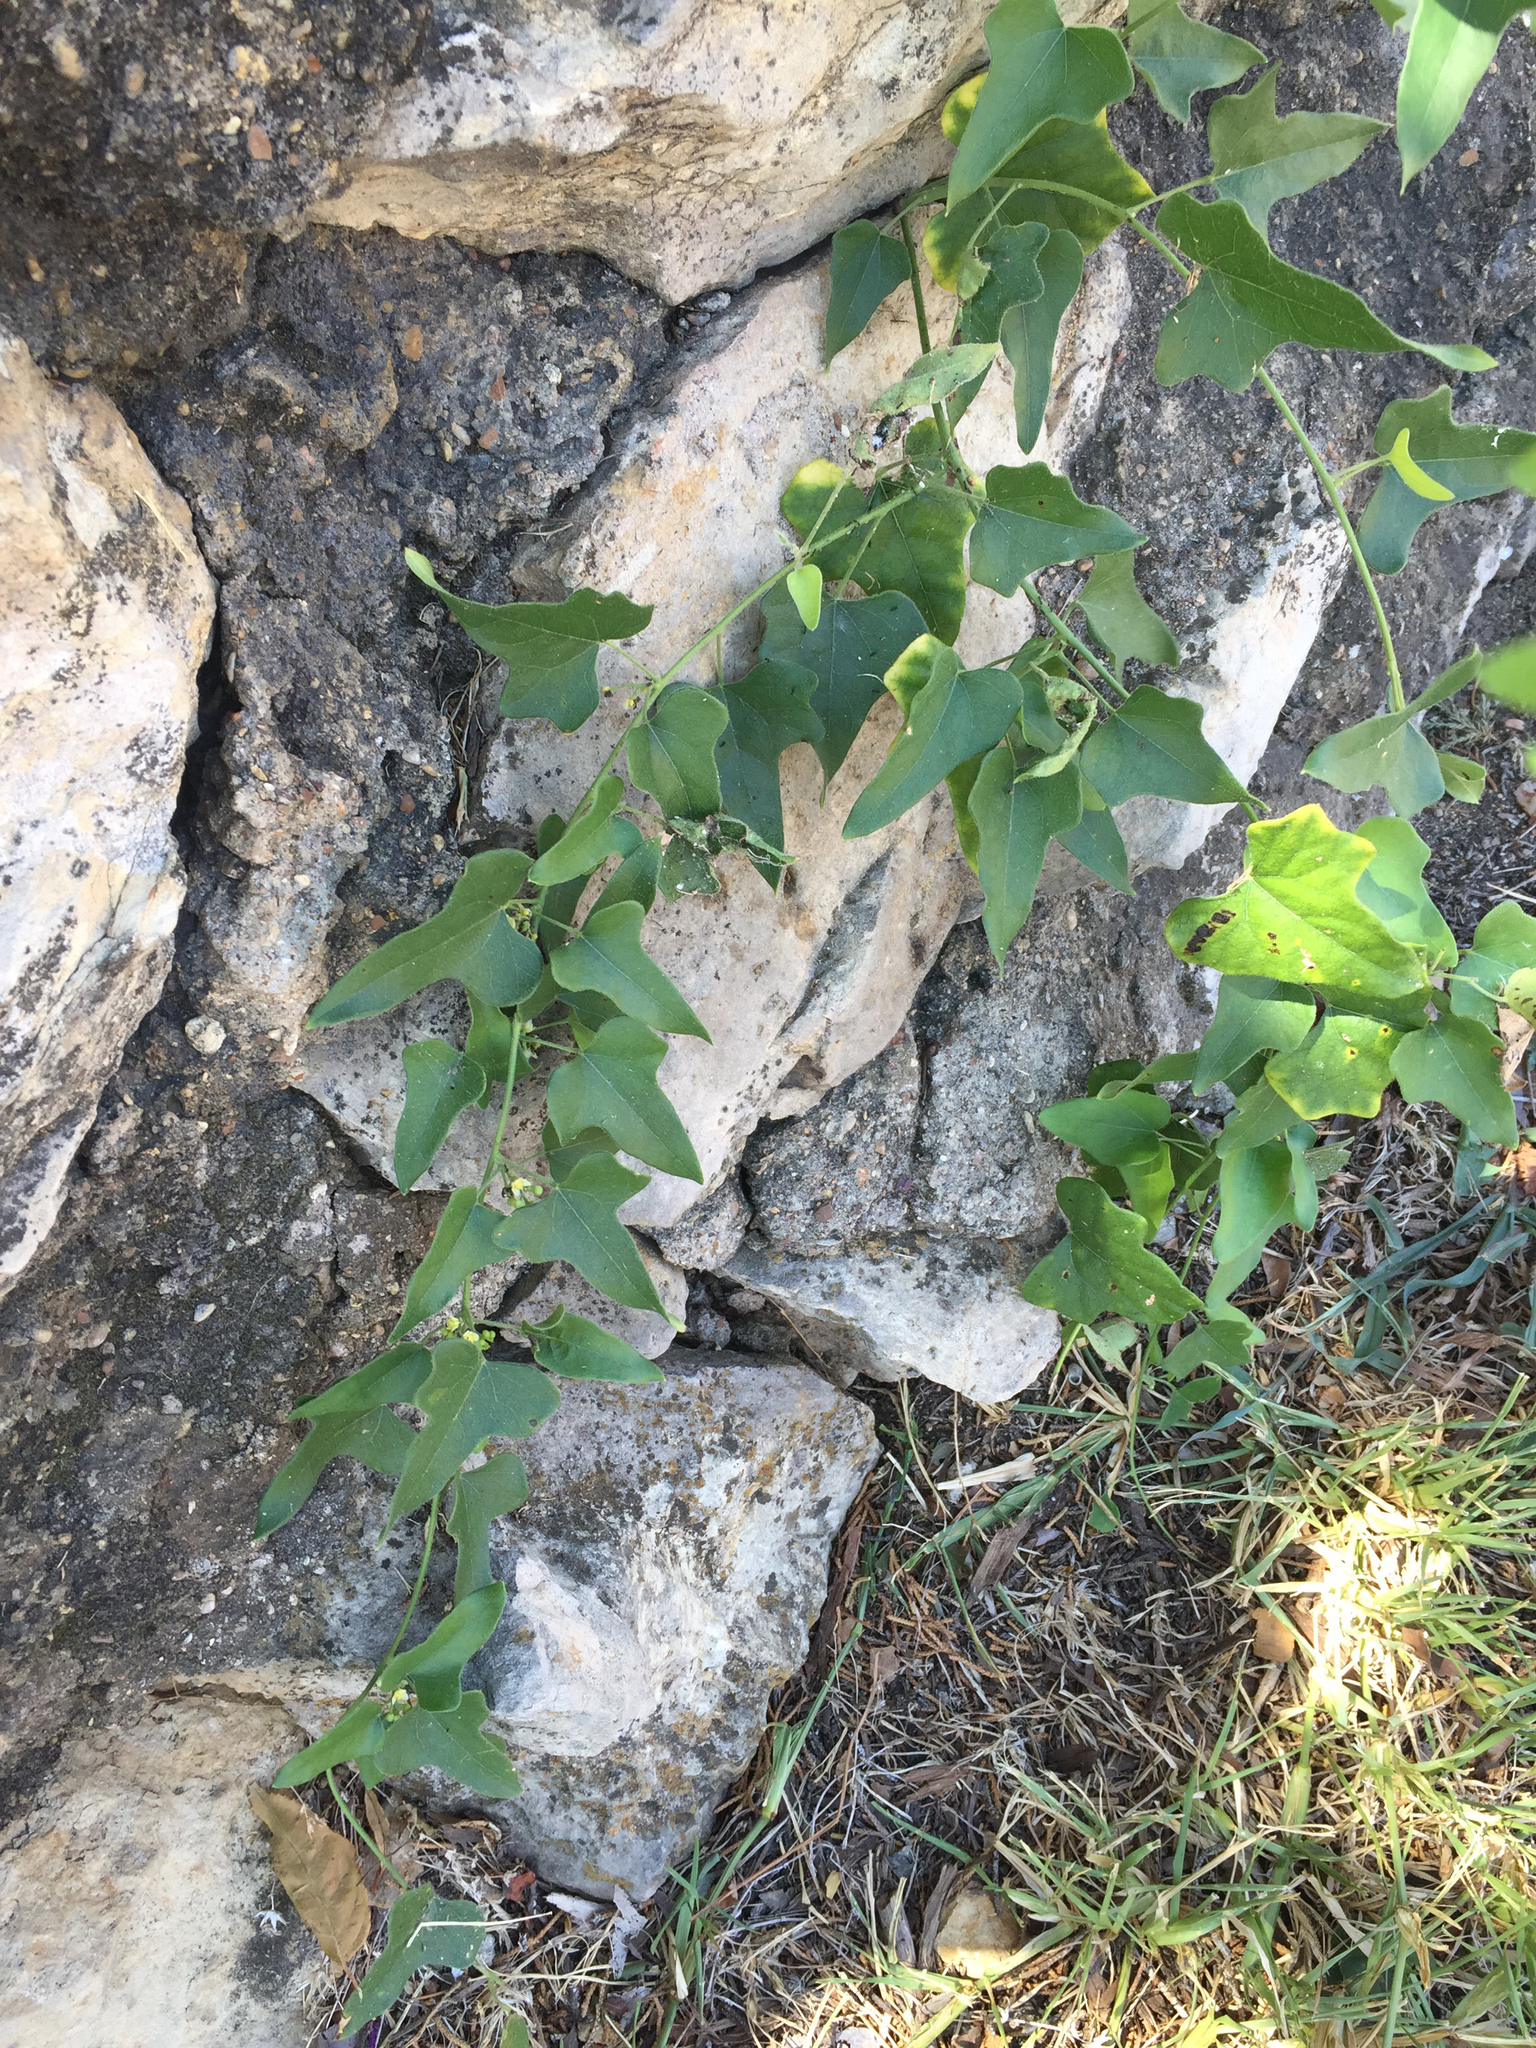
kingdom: Plantae
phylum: Tracheophyta
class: Magnoliopsida
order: Ranunculales
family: Menispermaceae
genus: Cocculus
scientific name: Cocculus carolinus
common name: Carolina moonseed
